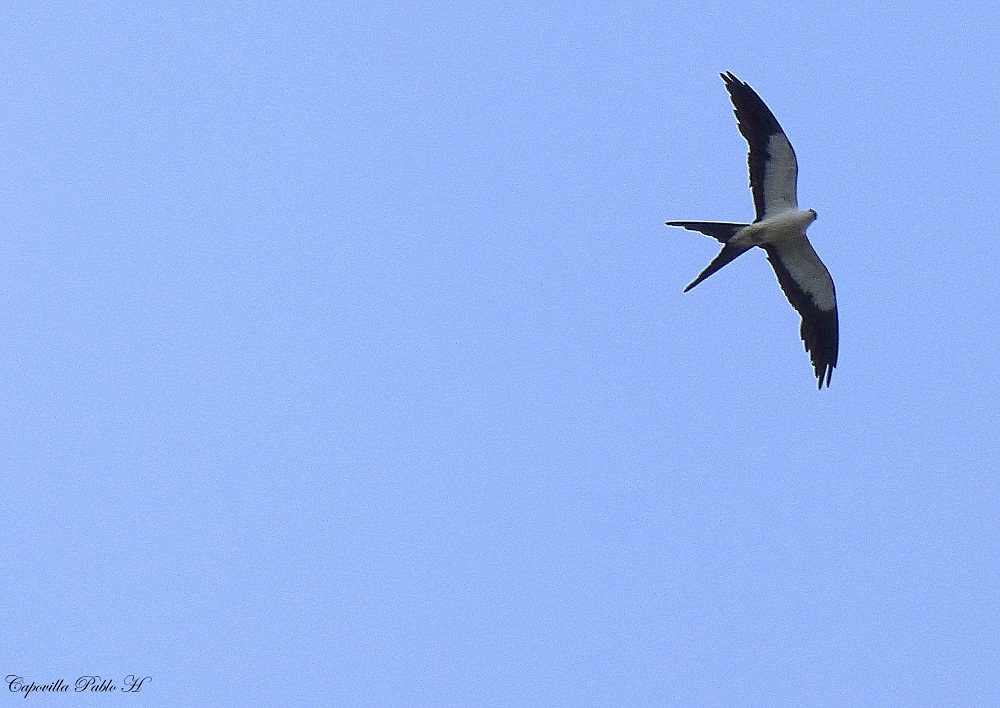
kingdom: Animalia
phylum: Chordata
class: Aves
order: Accipitriformes
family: Accipitridae
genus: Elanoides
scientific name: Elanoides forficatus
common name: Swallow-tailed kite
